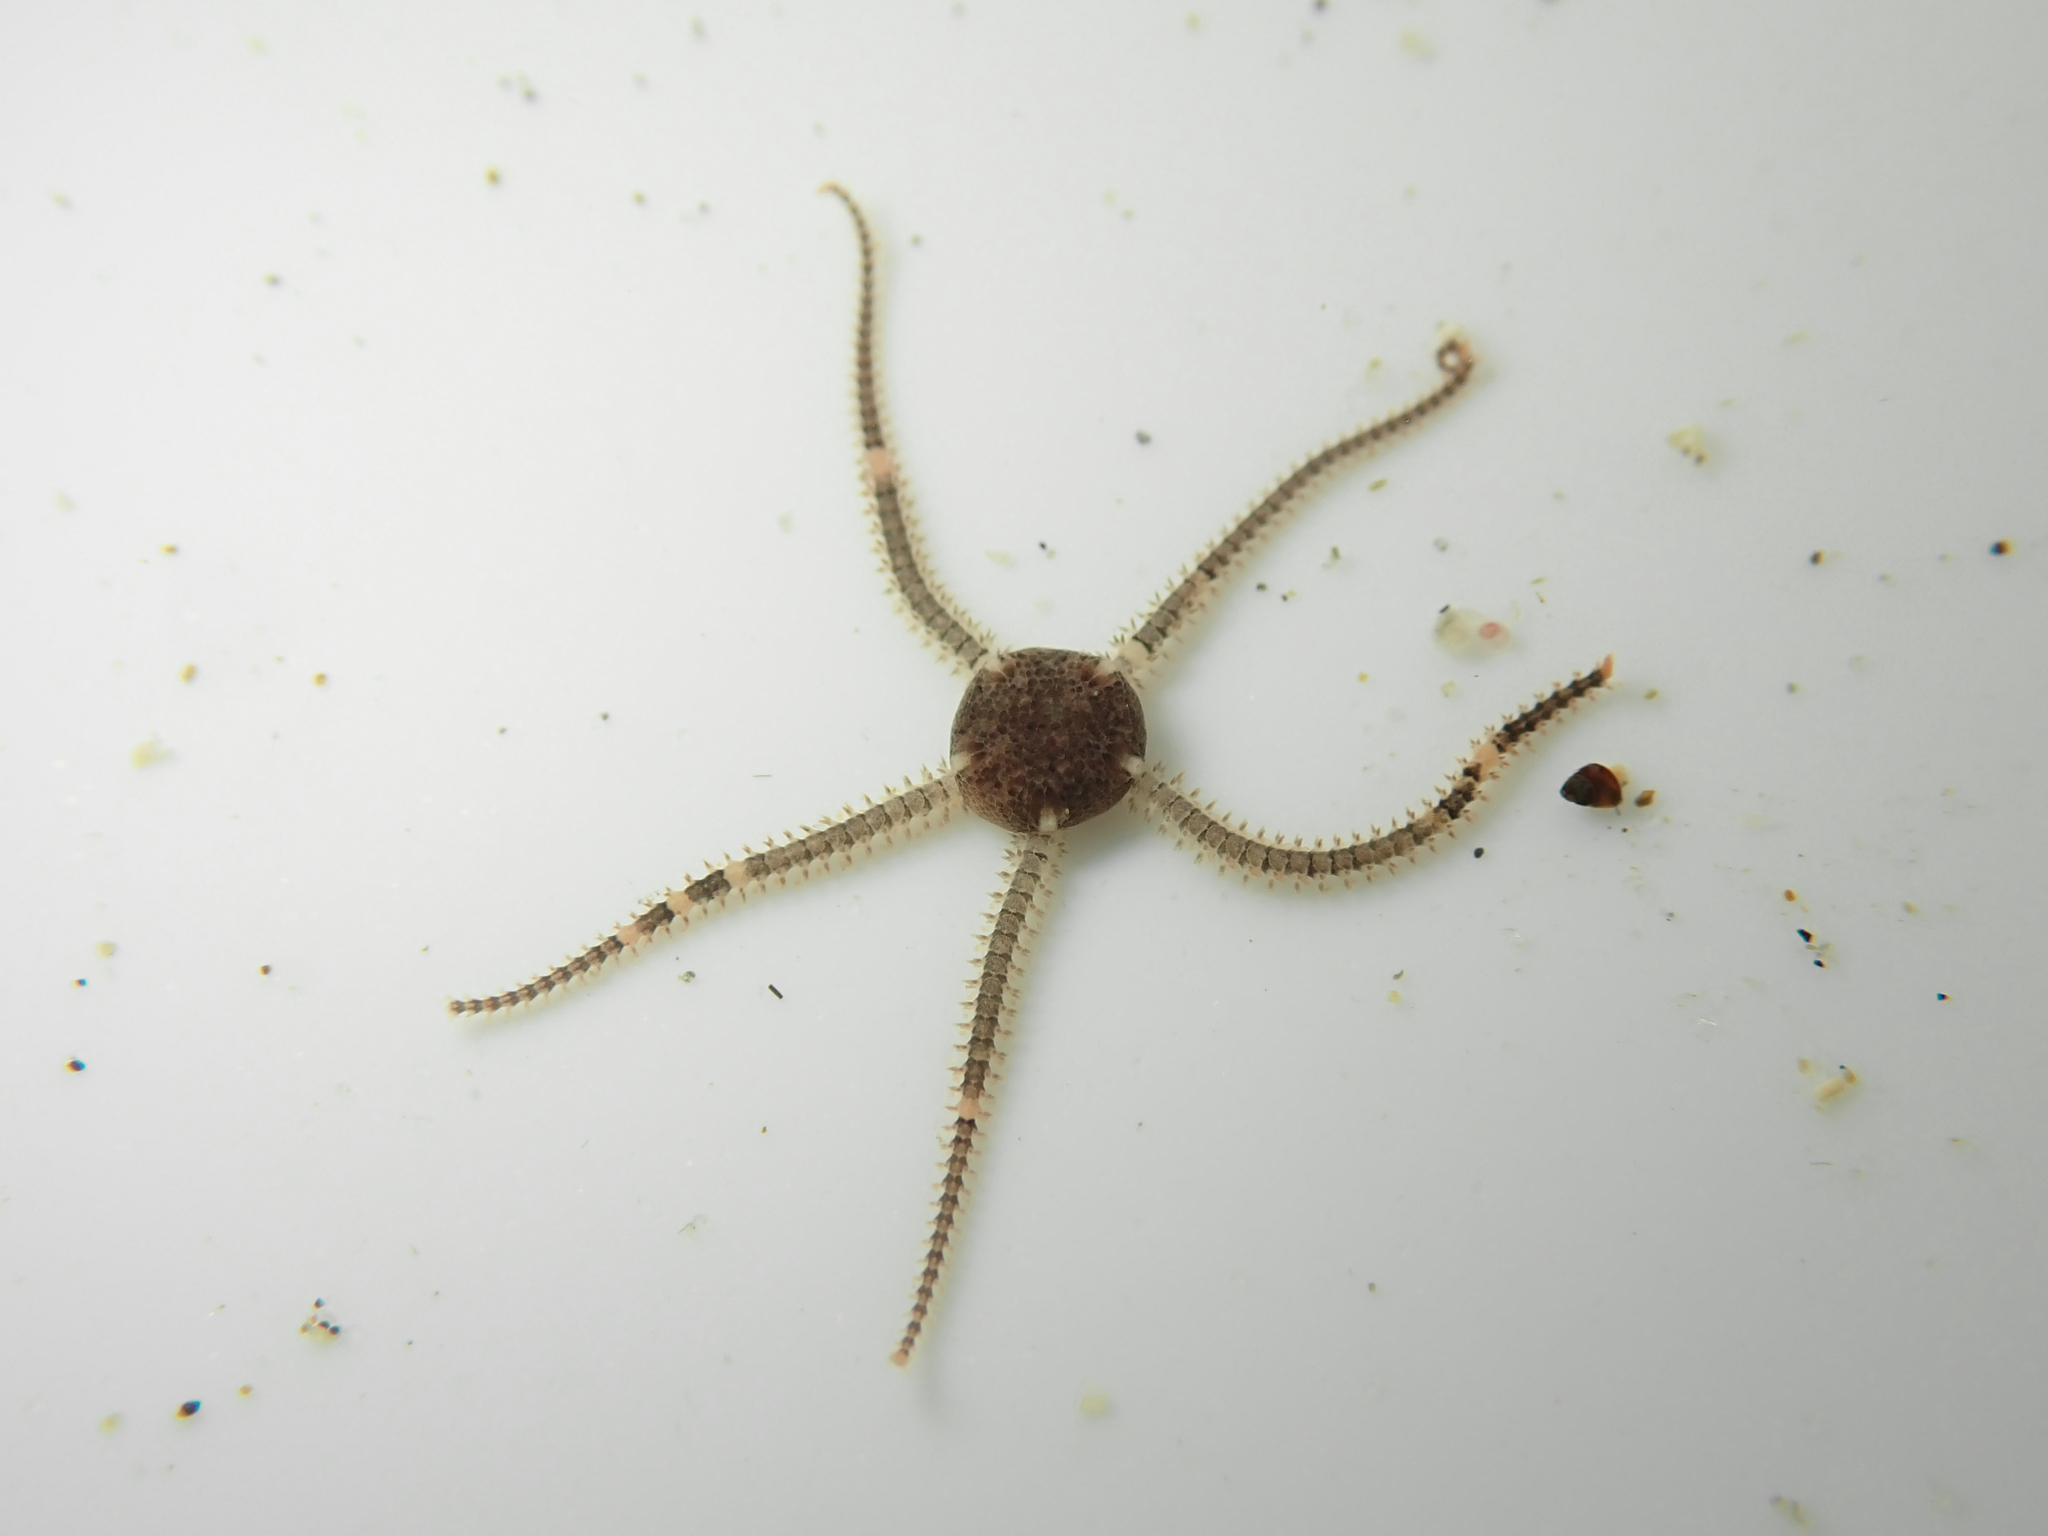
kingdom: Animalia
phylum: Echinodermata
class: Ophiuroidea
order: Amphilepidida
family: Amphiuridae
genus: Amphipholis
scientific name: Amphipholis squamata
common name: Brooding snake star
